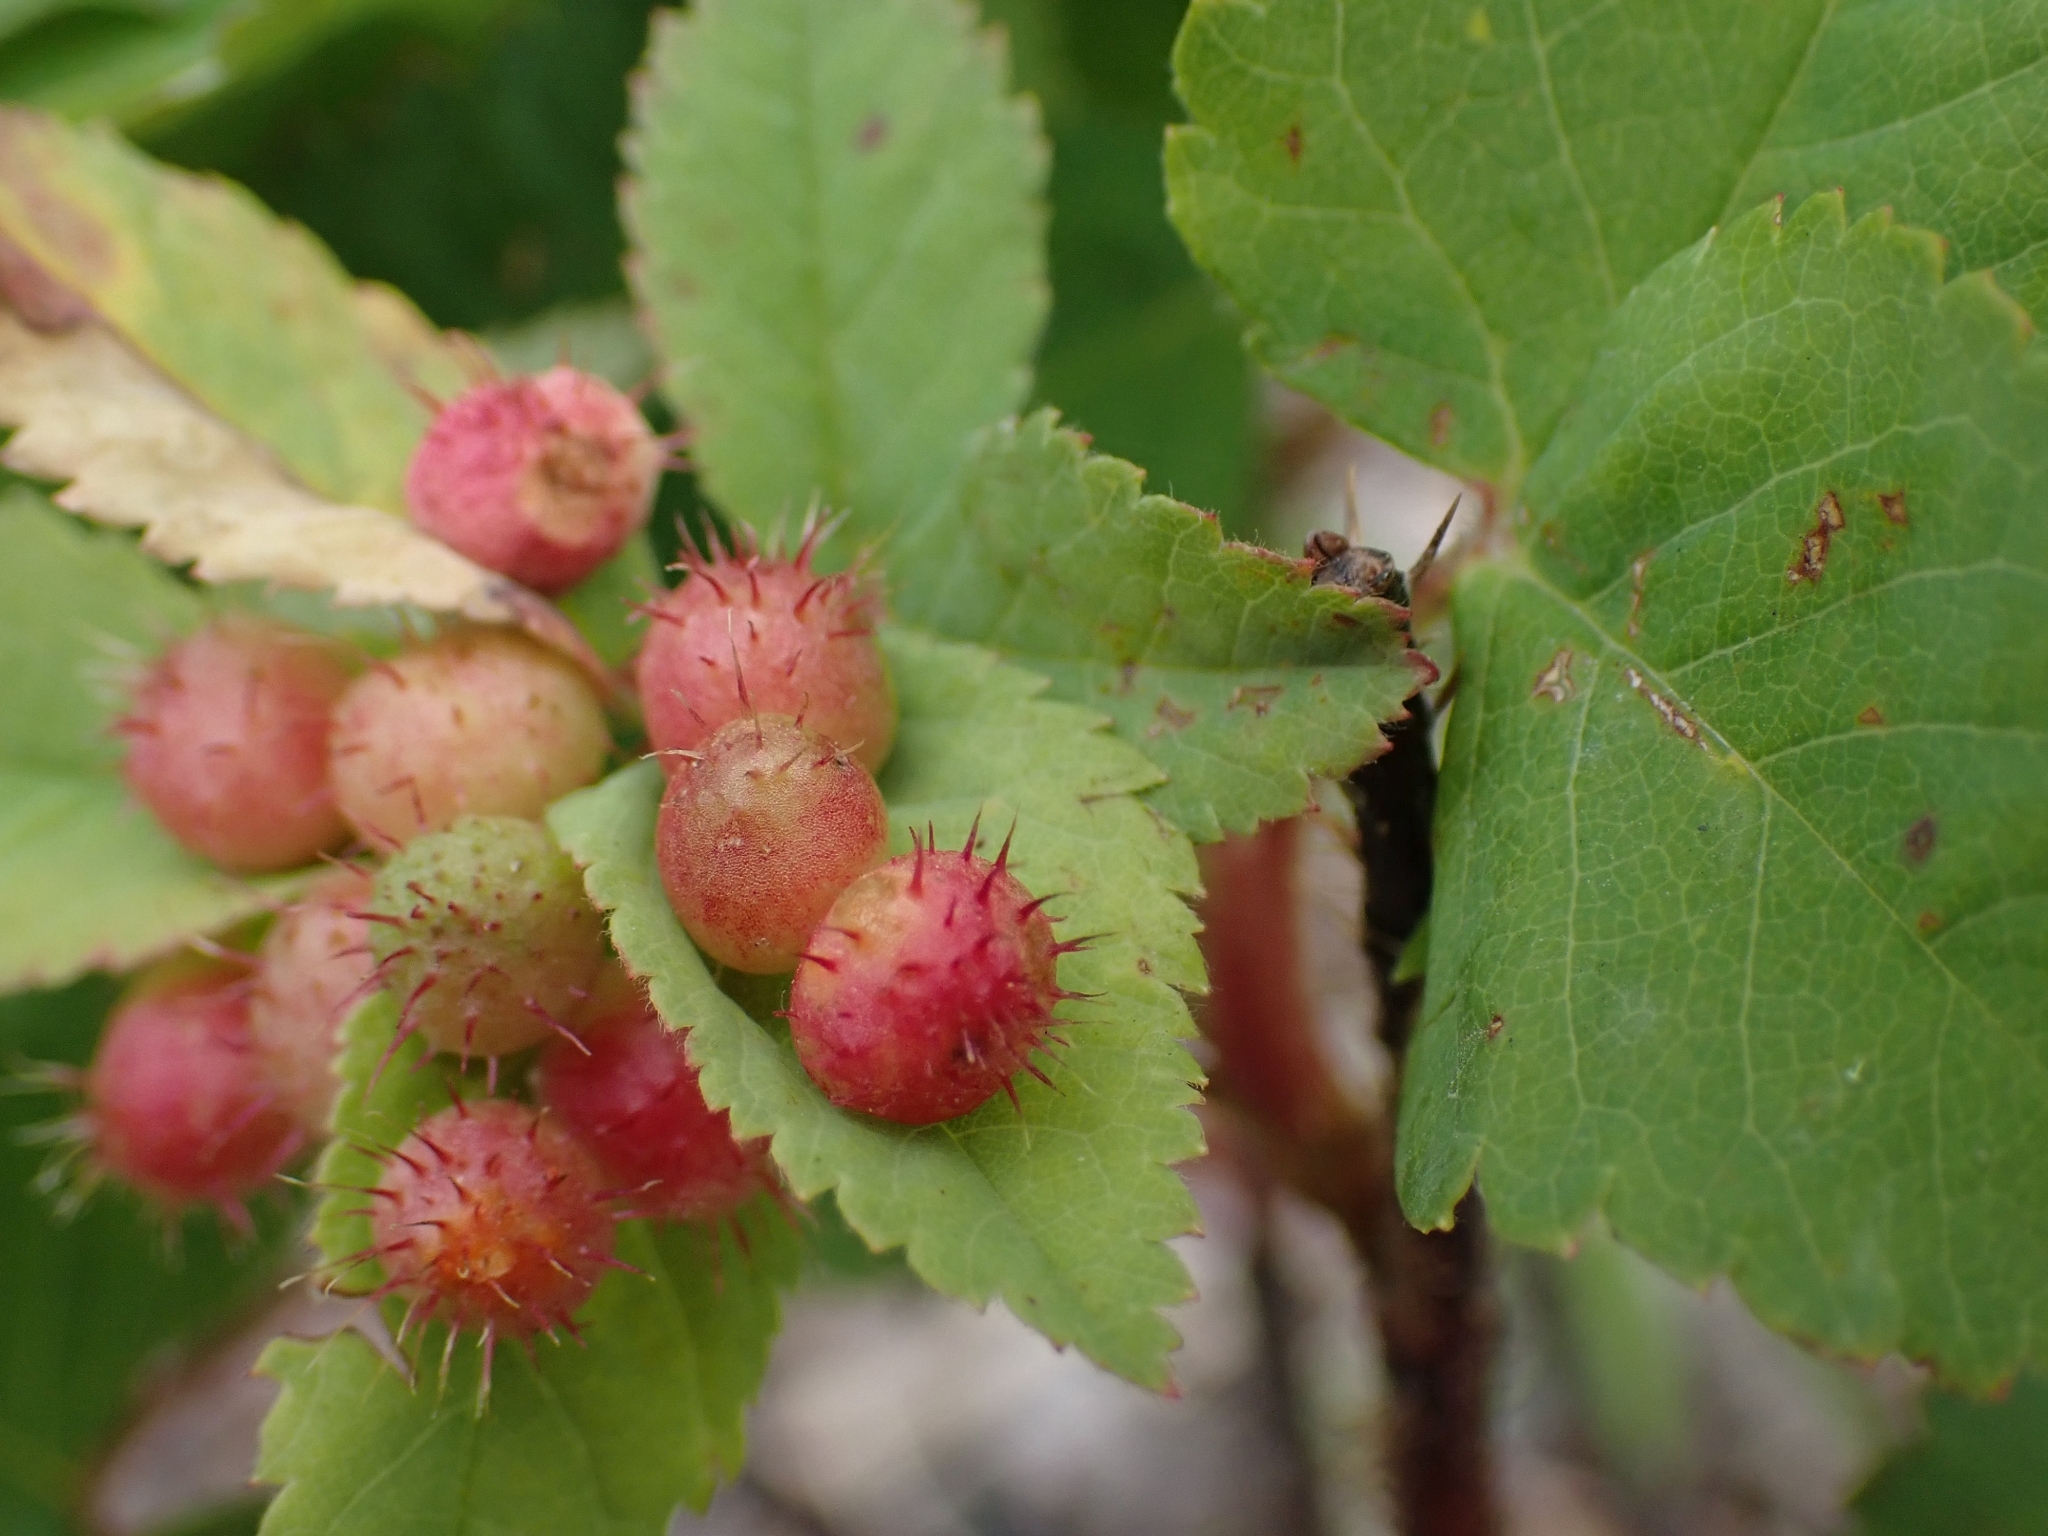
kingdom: Animalia
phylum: Arthropoda
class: Insecta
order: Hymenoptera
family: Cynipidae
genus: Diplolepis
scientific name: Diplolepis polita
